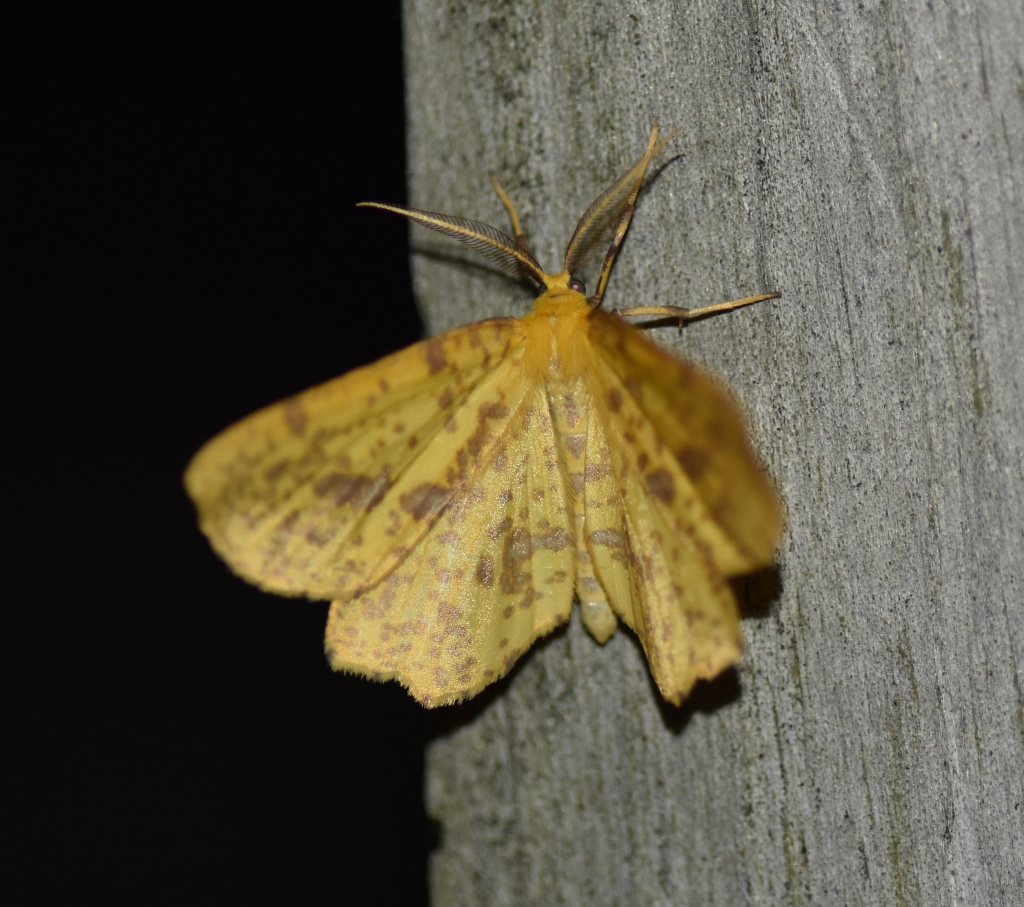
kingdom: Animalia
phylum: Arthropoda
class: Insecta
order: Lepidoptera
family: Geometridae
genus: Xanthotype
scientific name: Xanthotype
